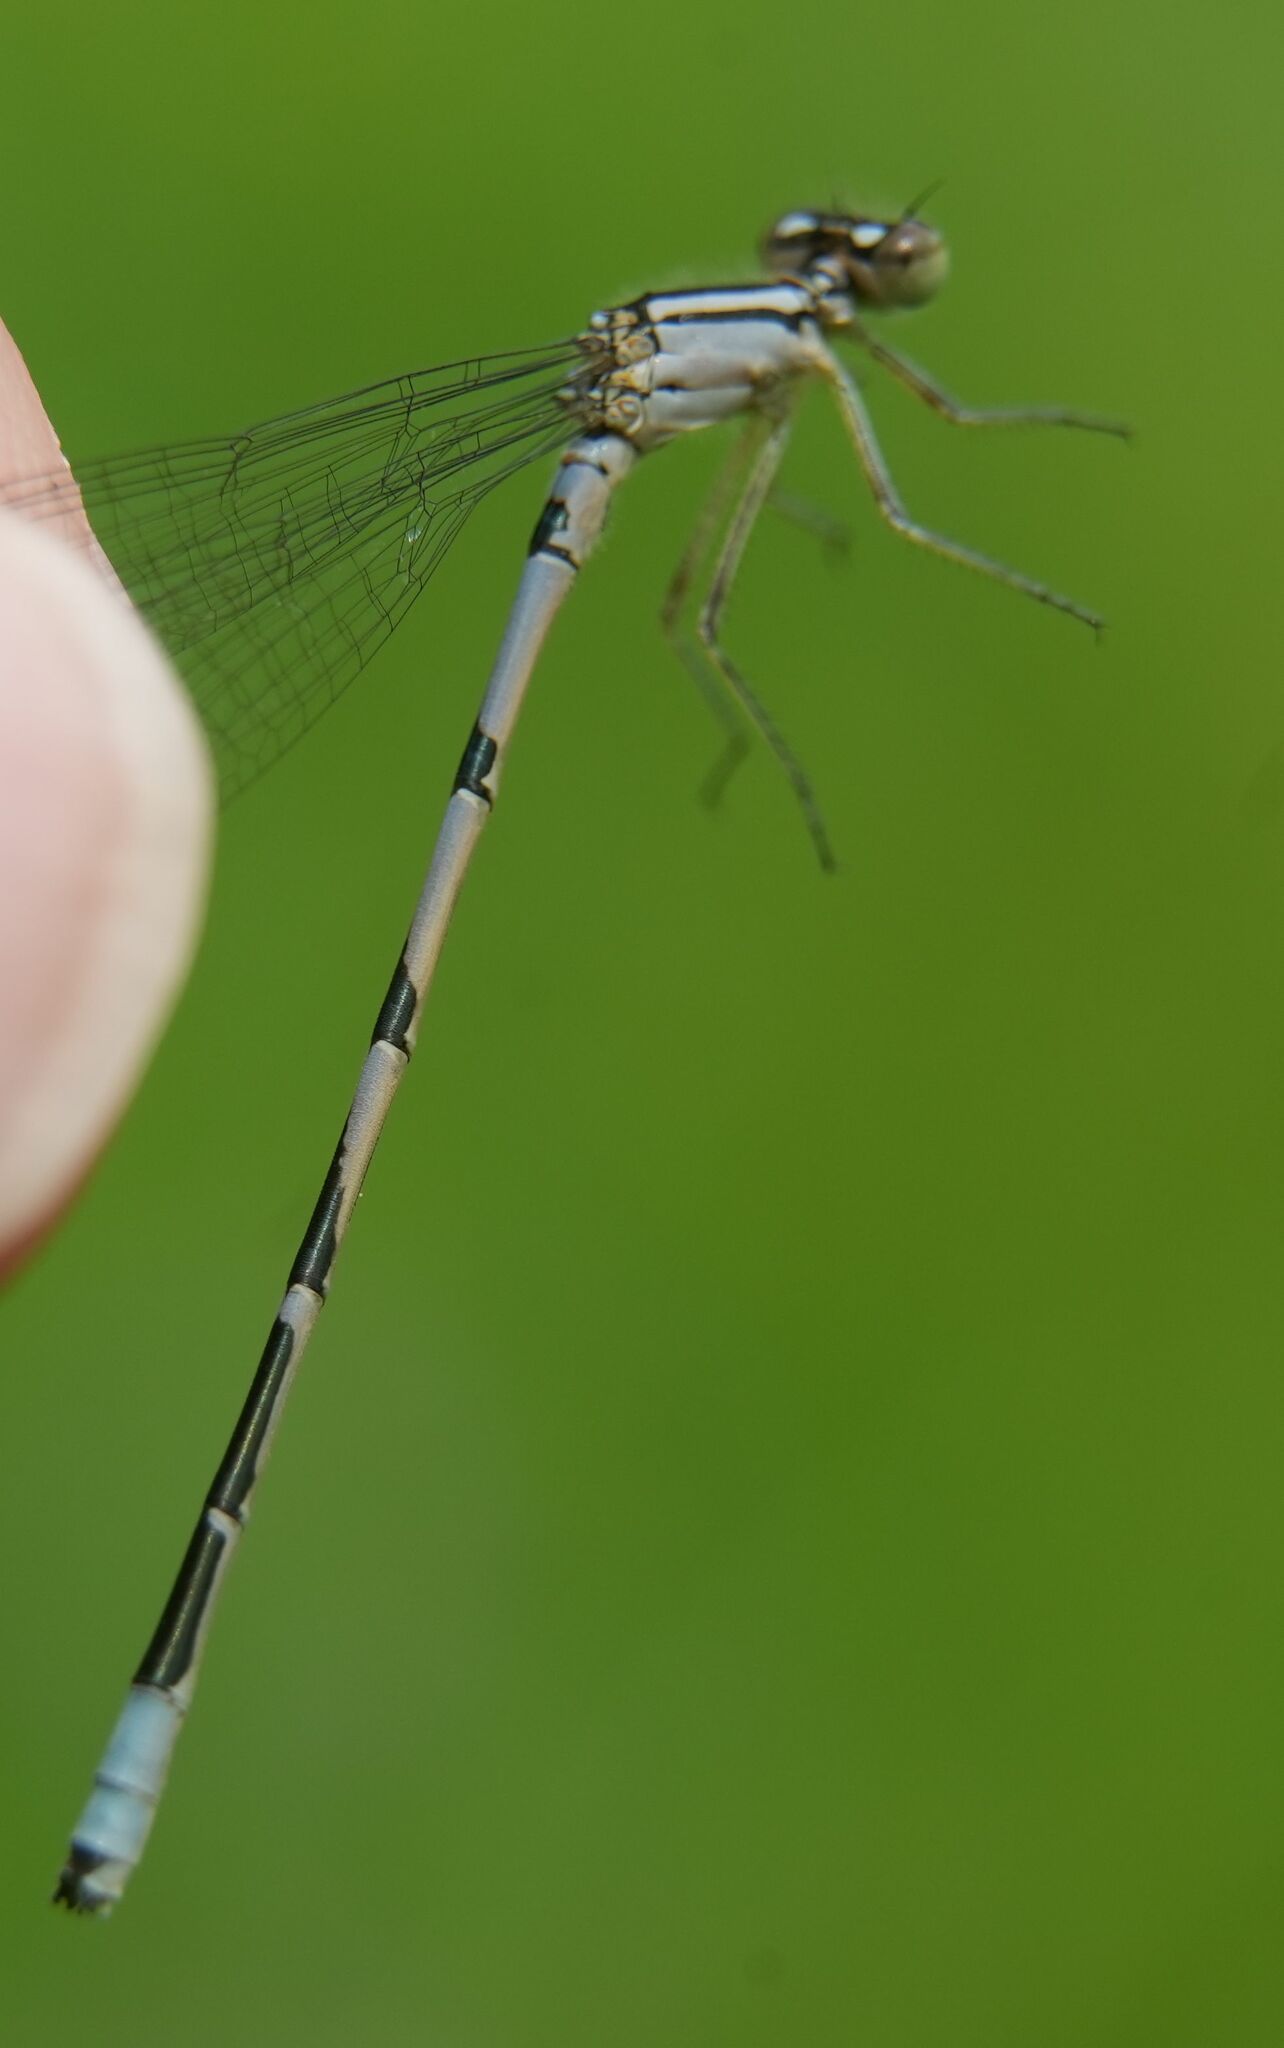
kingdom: Animalia
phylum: Arthropoda
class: Insecta
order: Odonata
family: Coenagrionidae
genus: Enallagma
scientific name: Enallagma ebrium
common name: Marsh bluet
